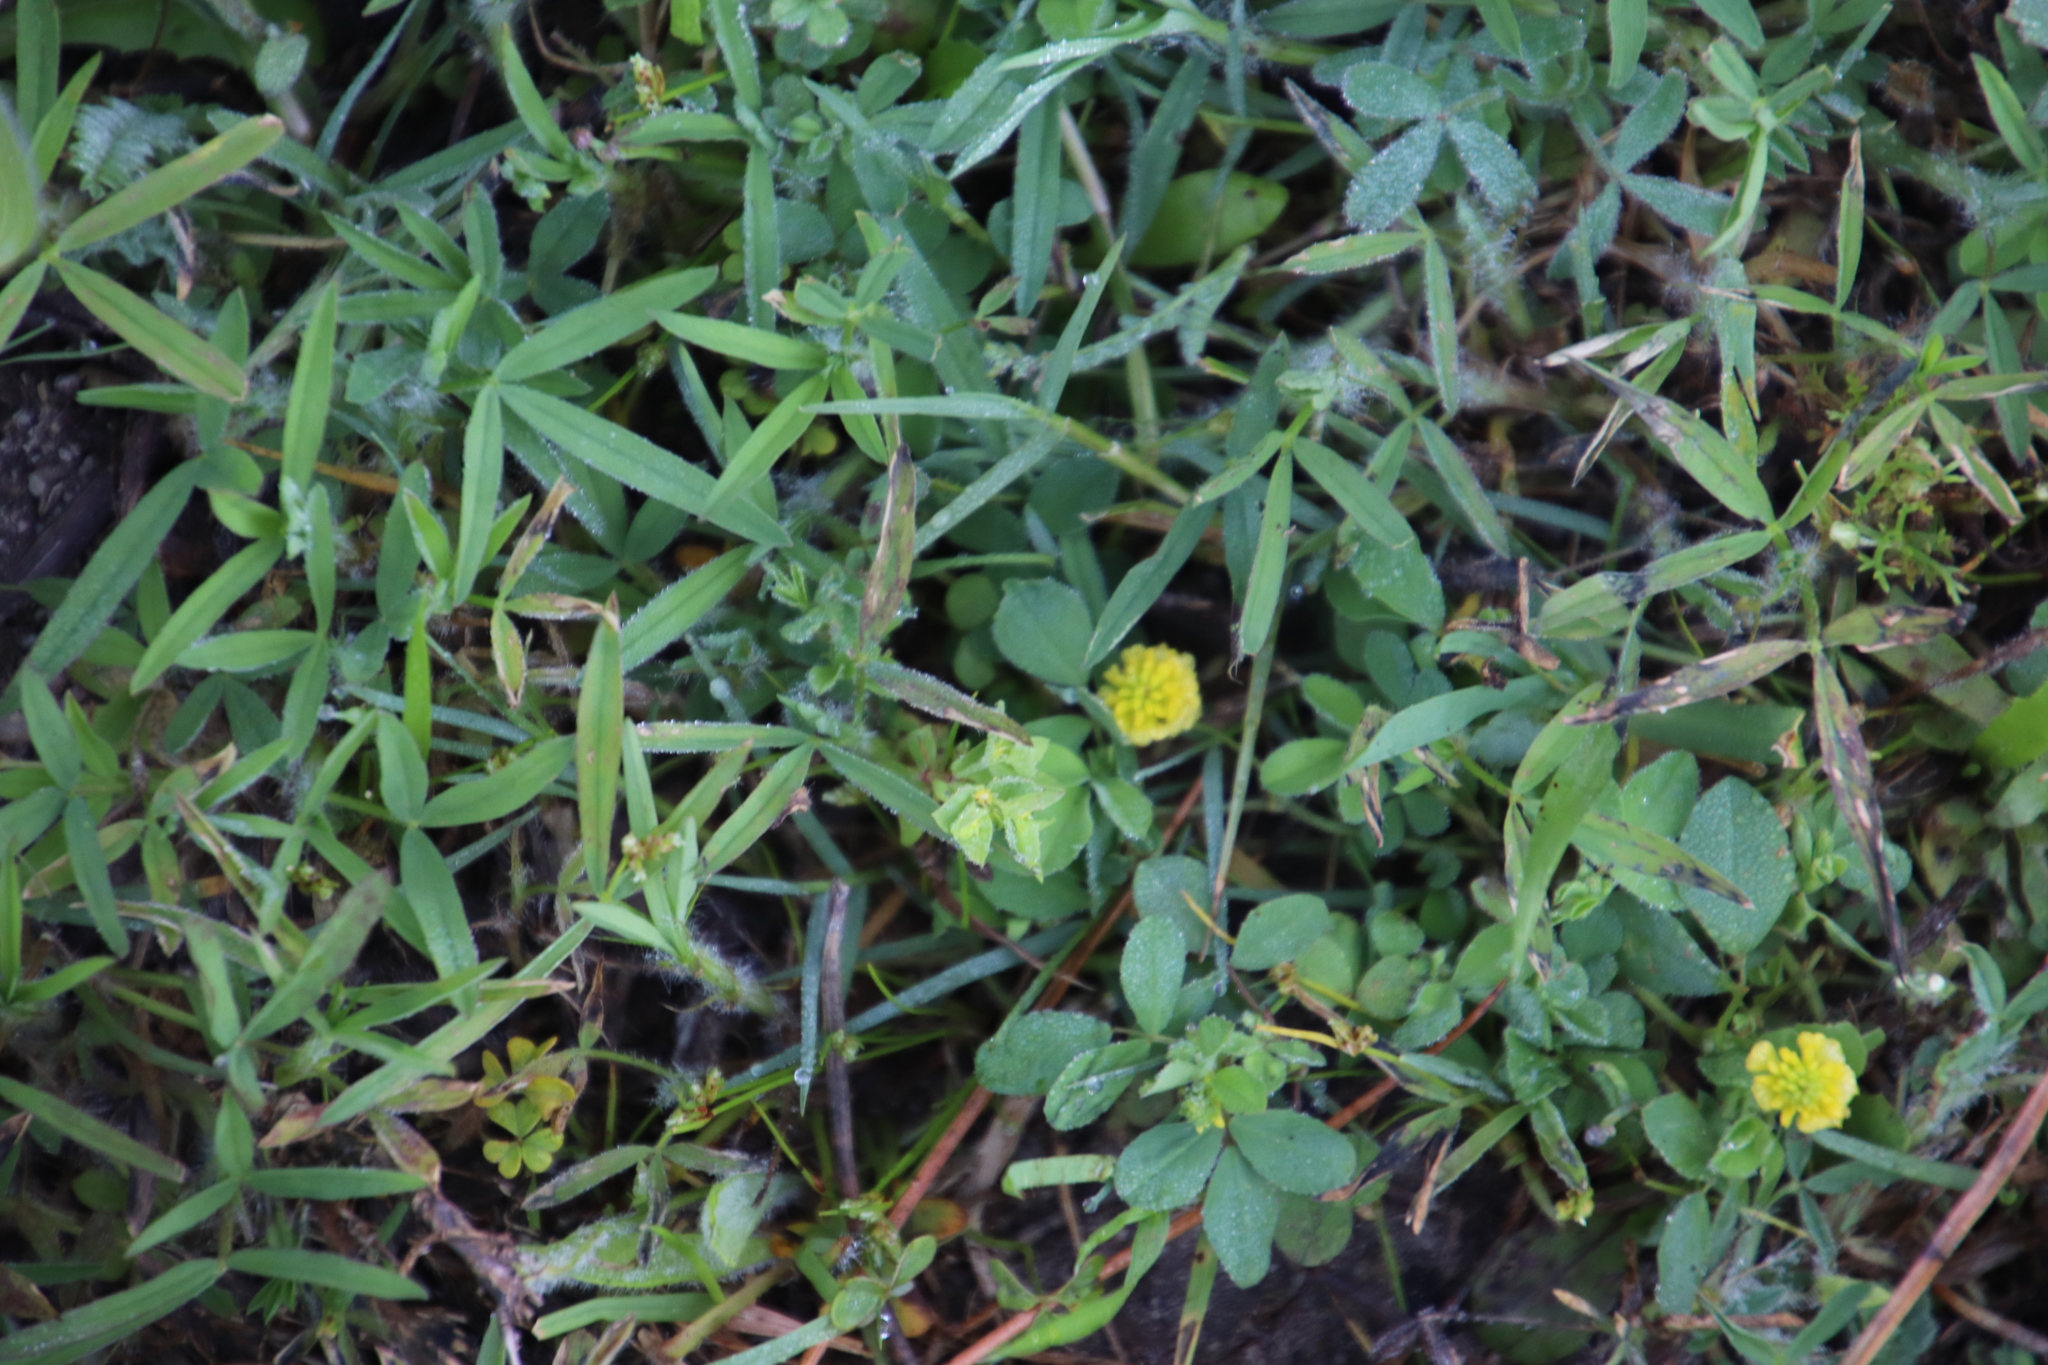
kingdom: Plantae
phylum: Tracheophyta
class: Magnoliopsida
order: Fabales
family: Fabaceae
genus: Trifolium
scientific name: Trifolium campestre
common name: Field clover
